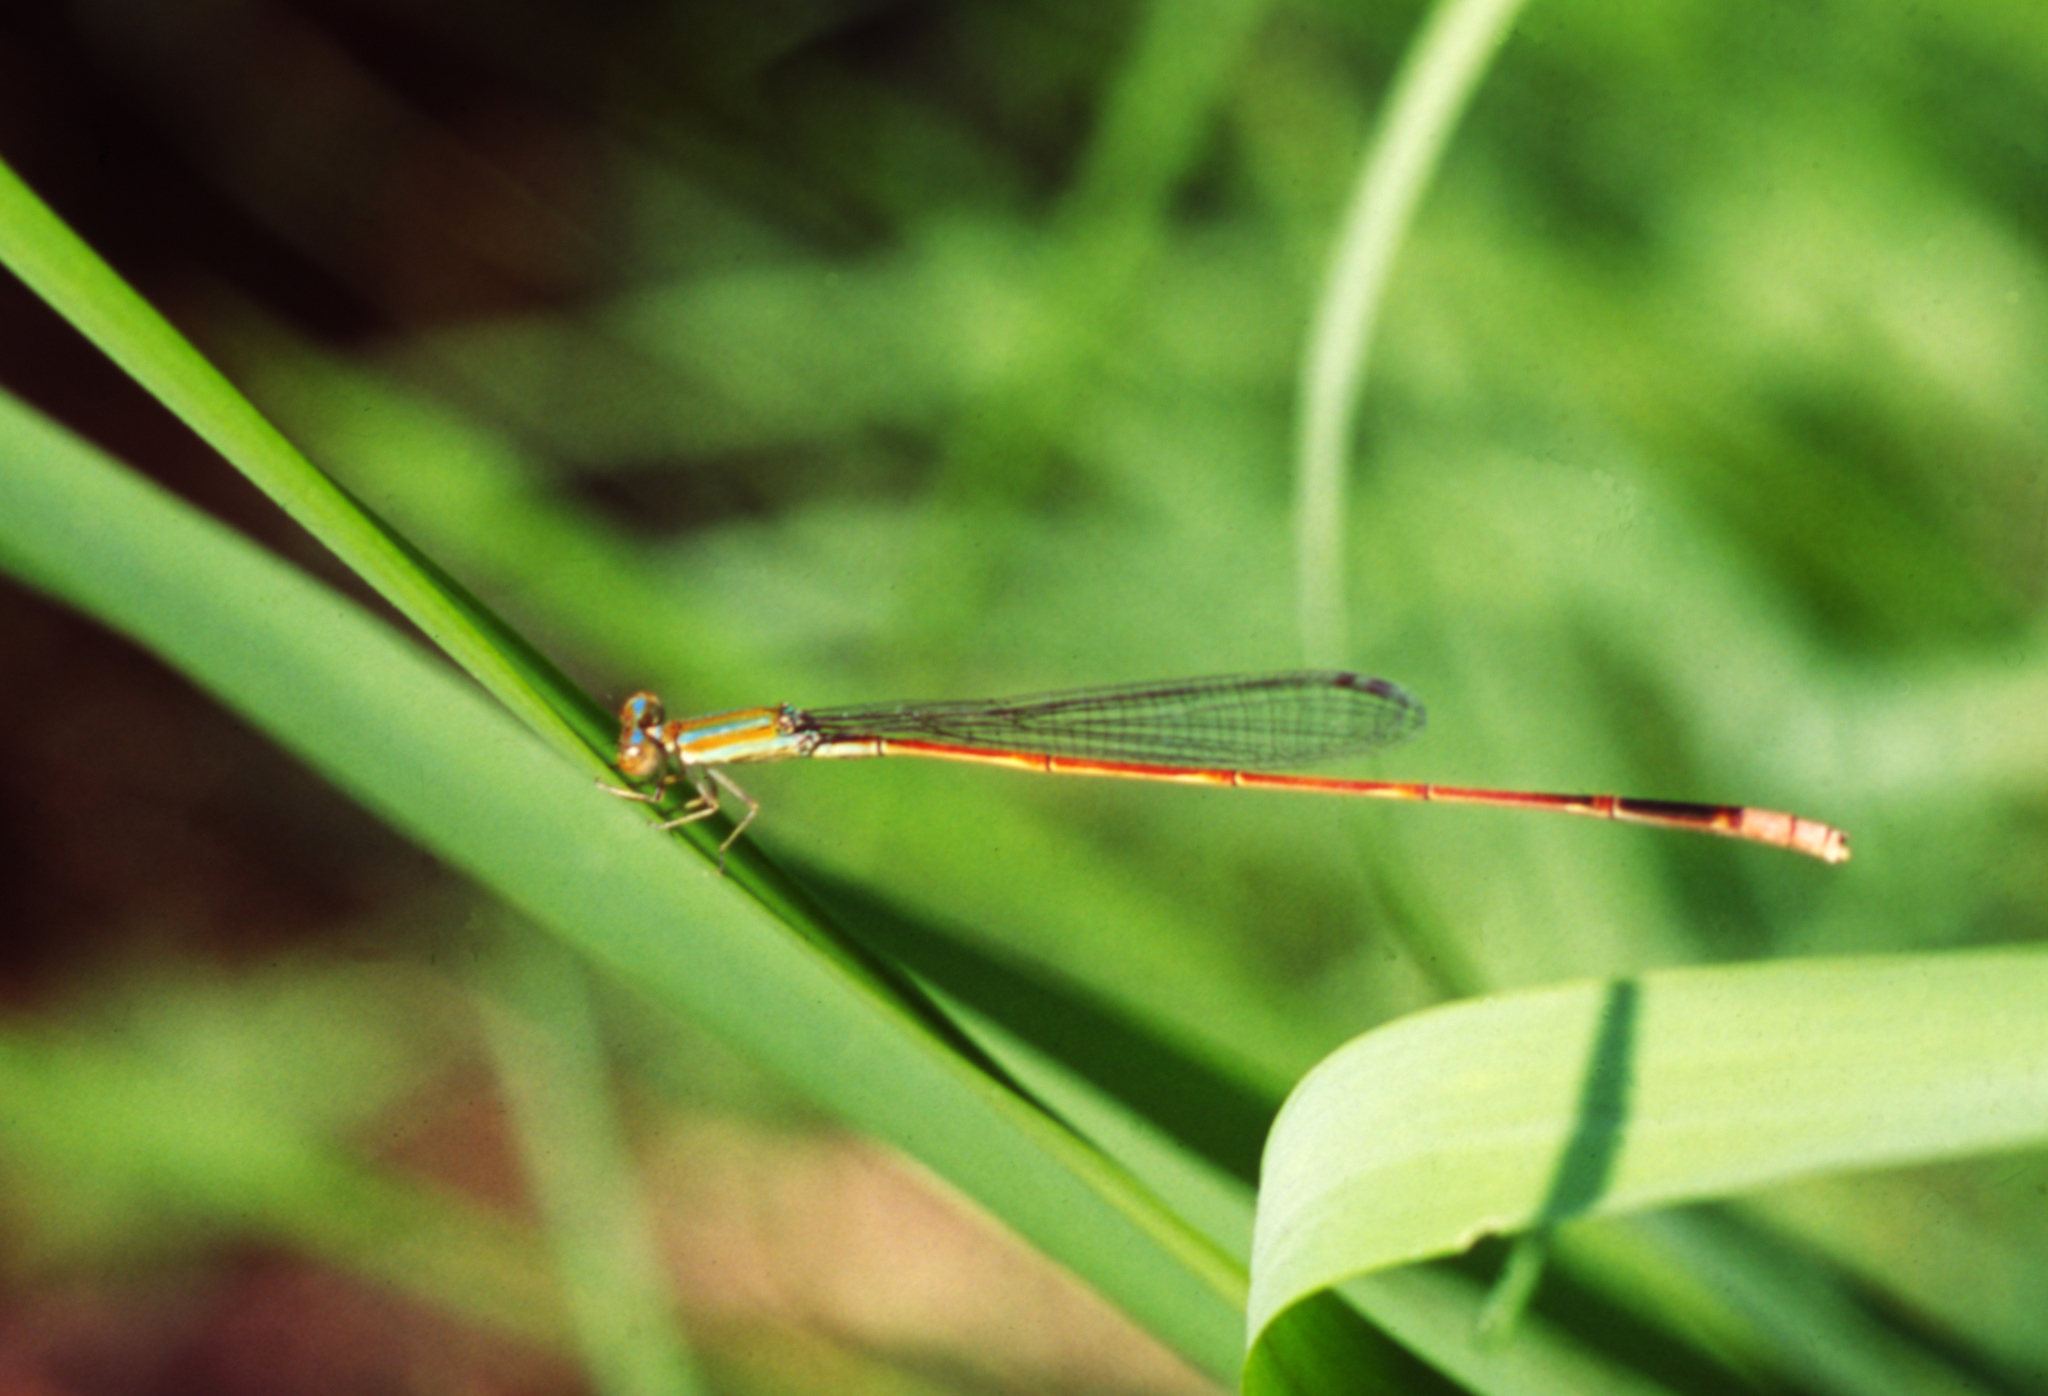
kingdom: Animalia
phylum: Arthropoda
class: Insecta
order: Odonata
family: Coenagrionidae
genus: Aciagrion
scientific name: Aciagrion pallidum
